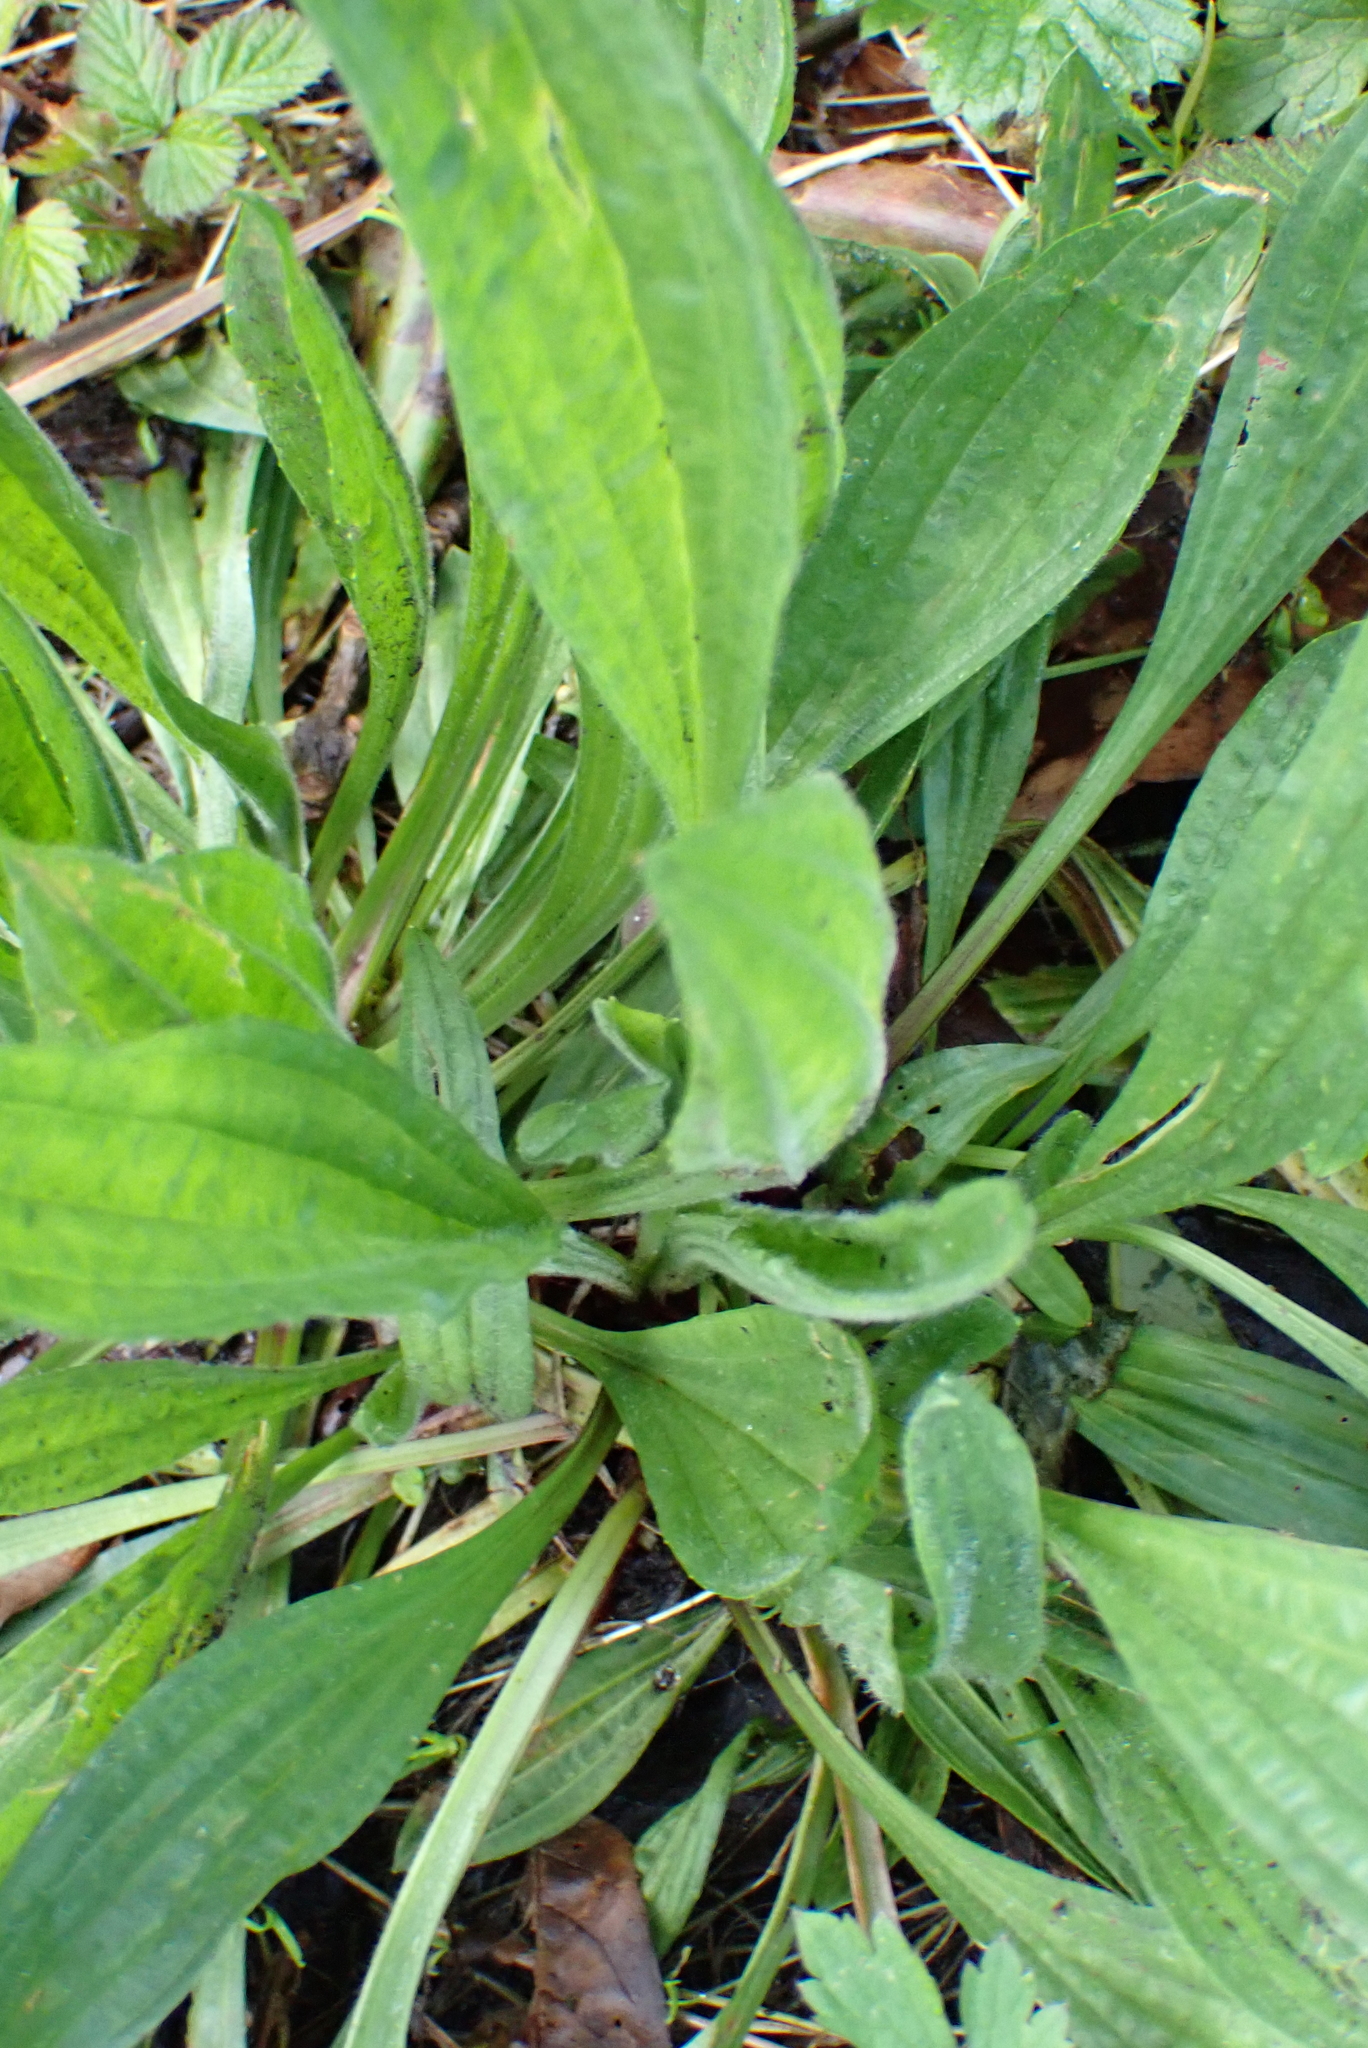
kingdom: Plantae
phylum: Tracheophyta
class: Magnoliopsida
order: Lamiales
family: Plantaginaceae
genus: Plantago
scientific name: Plantago lanceolata
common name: Ribwort plantain
